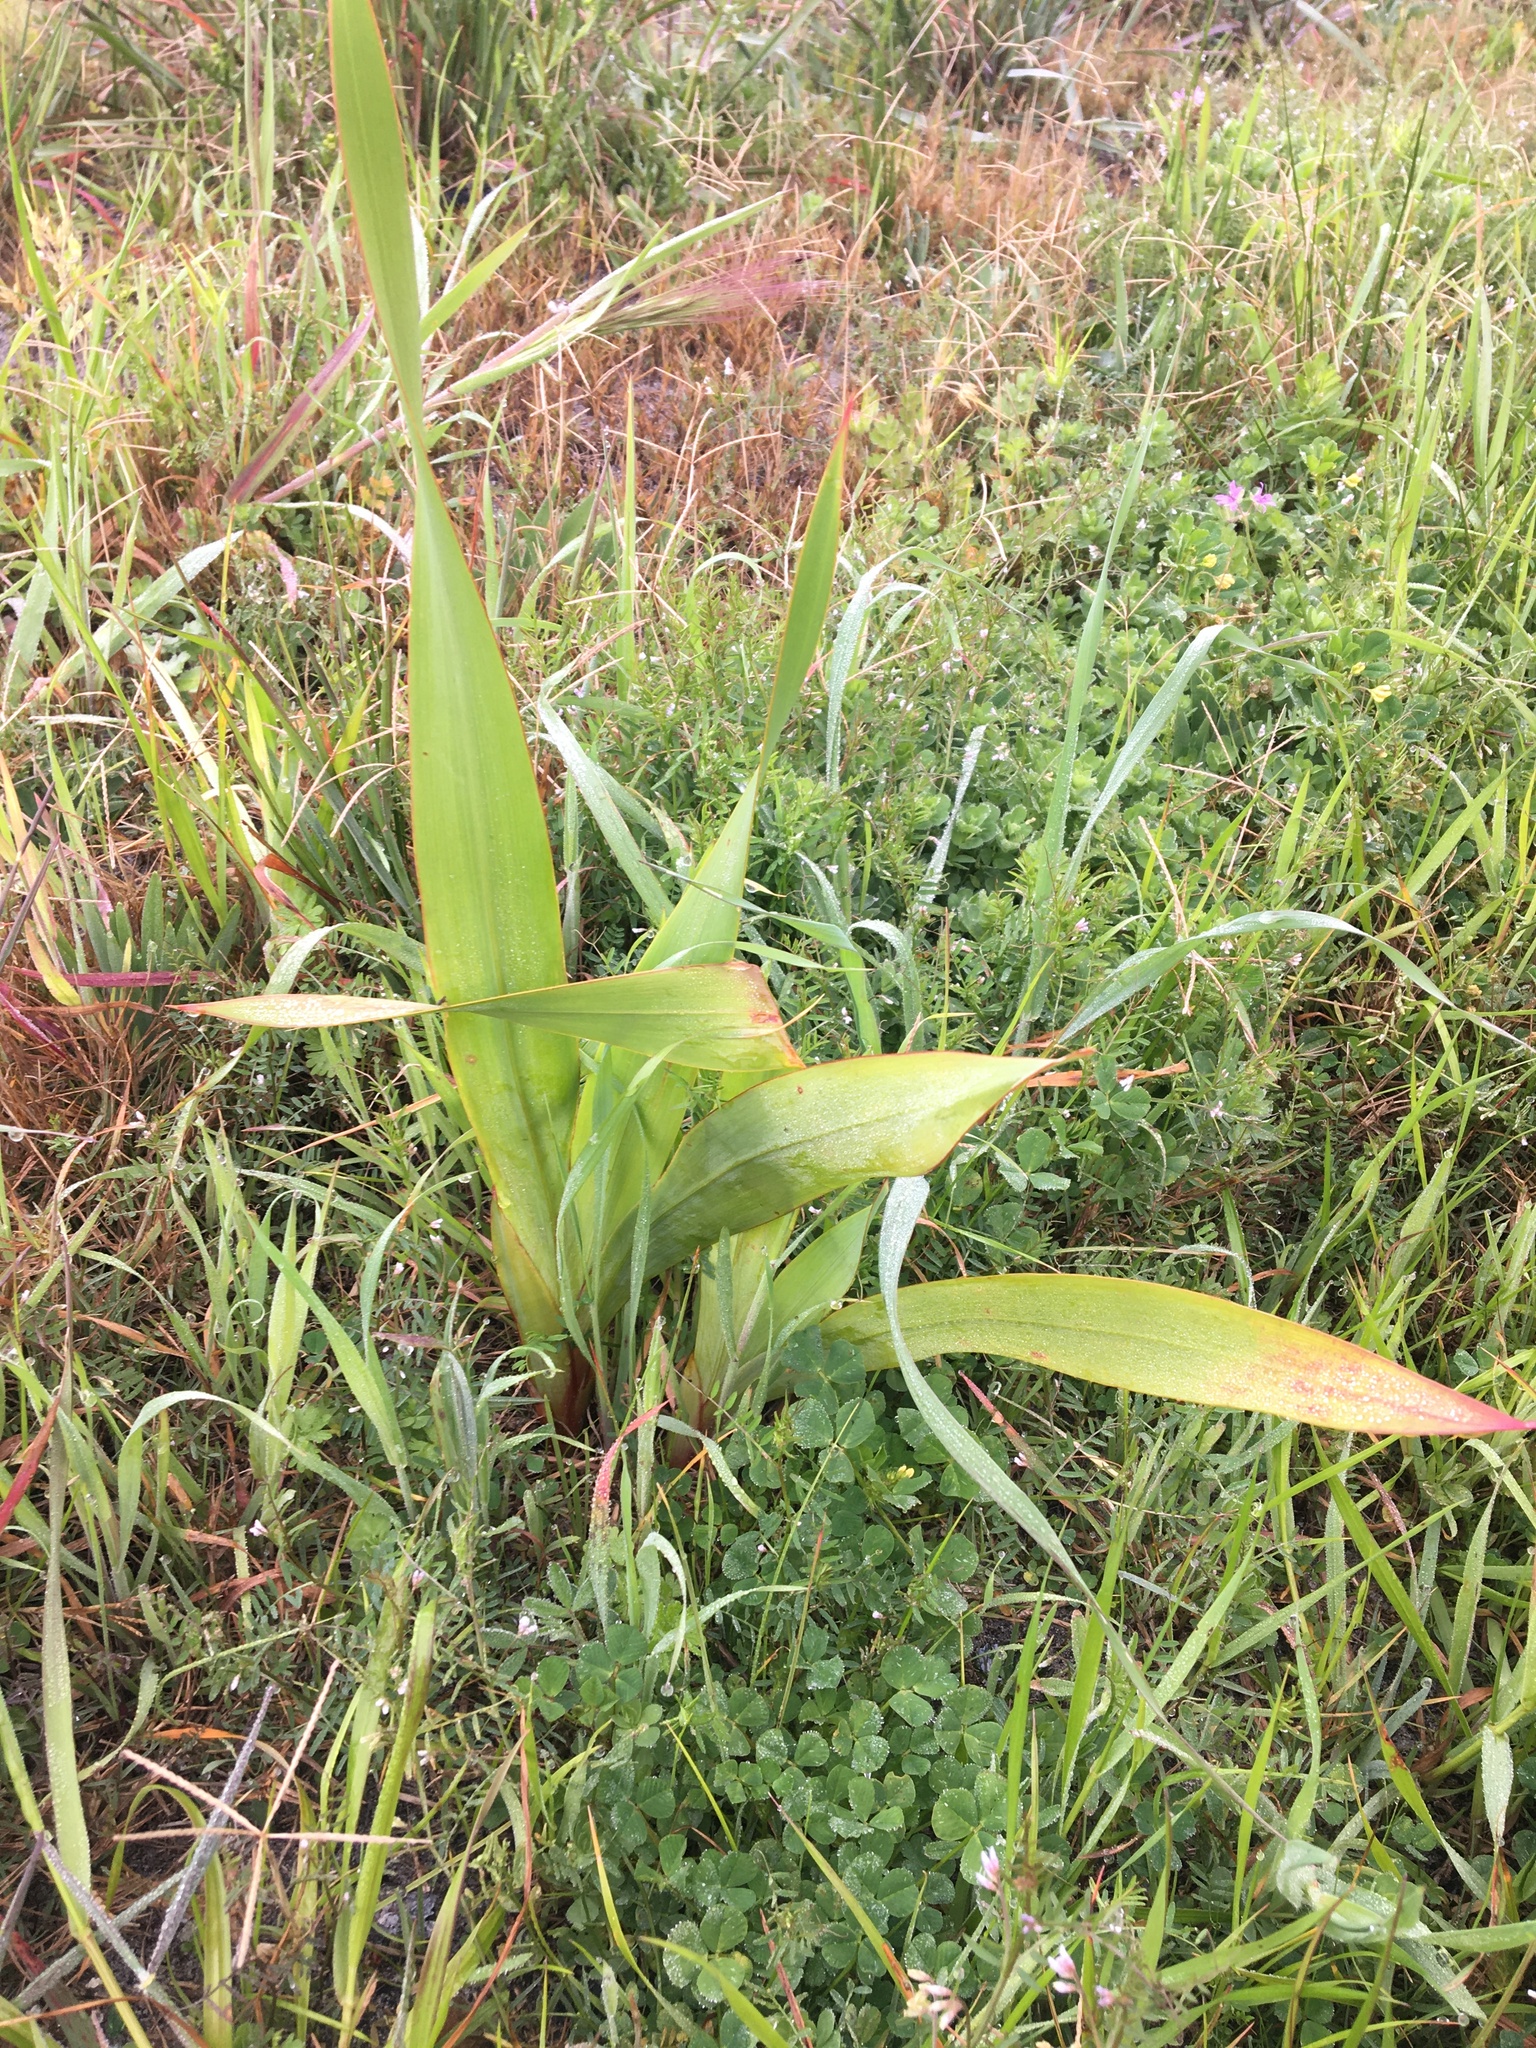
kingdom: Plantae
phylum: Tracheophyta
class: Liliopsida
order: Asparagales
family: Iridaceae
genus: Watsonia
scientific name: Watsonia meriana
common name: Bulbil bugle-lily
